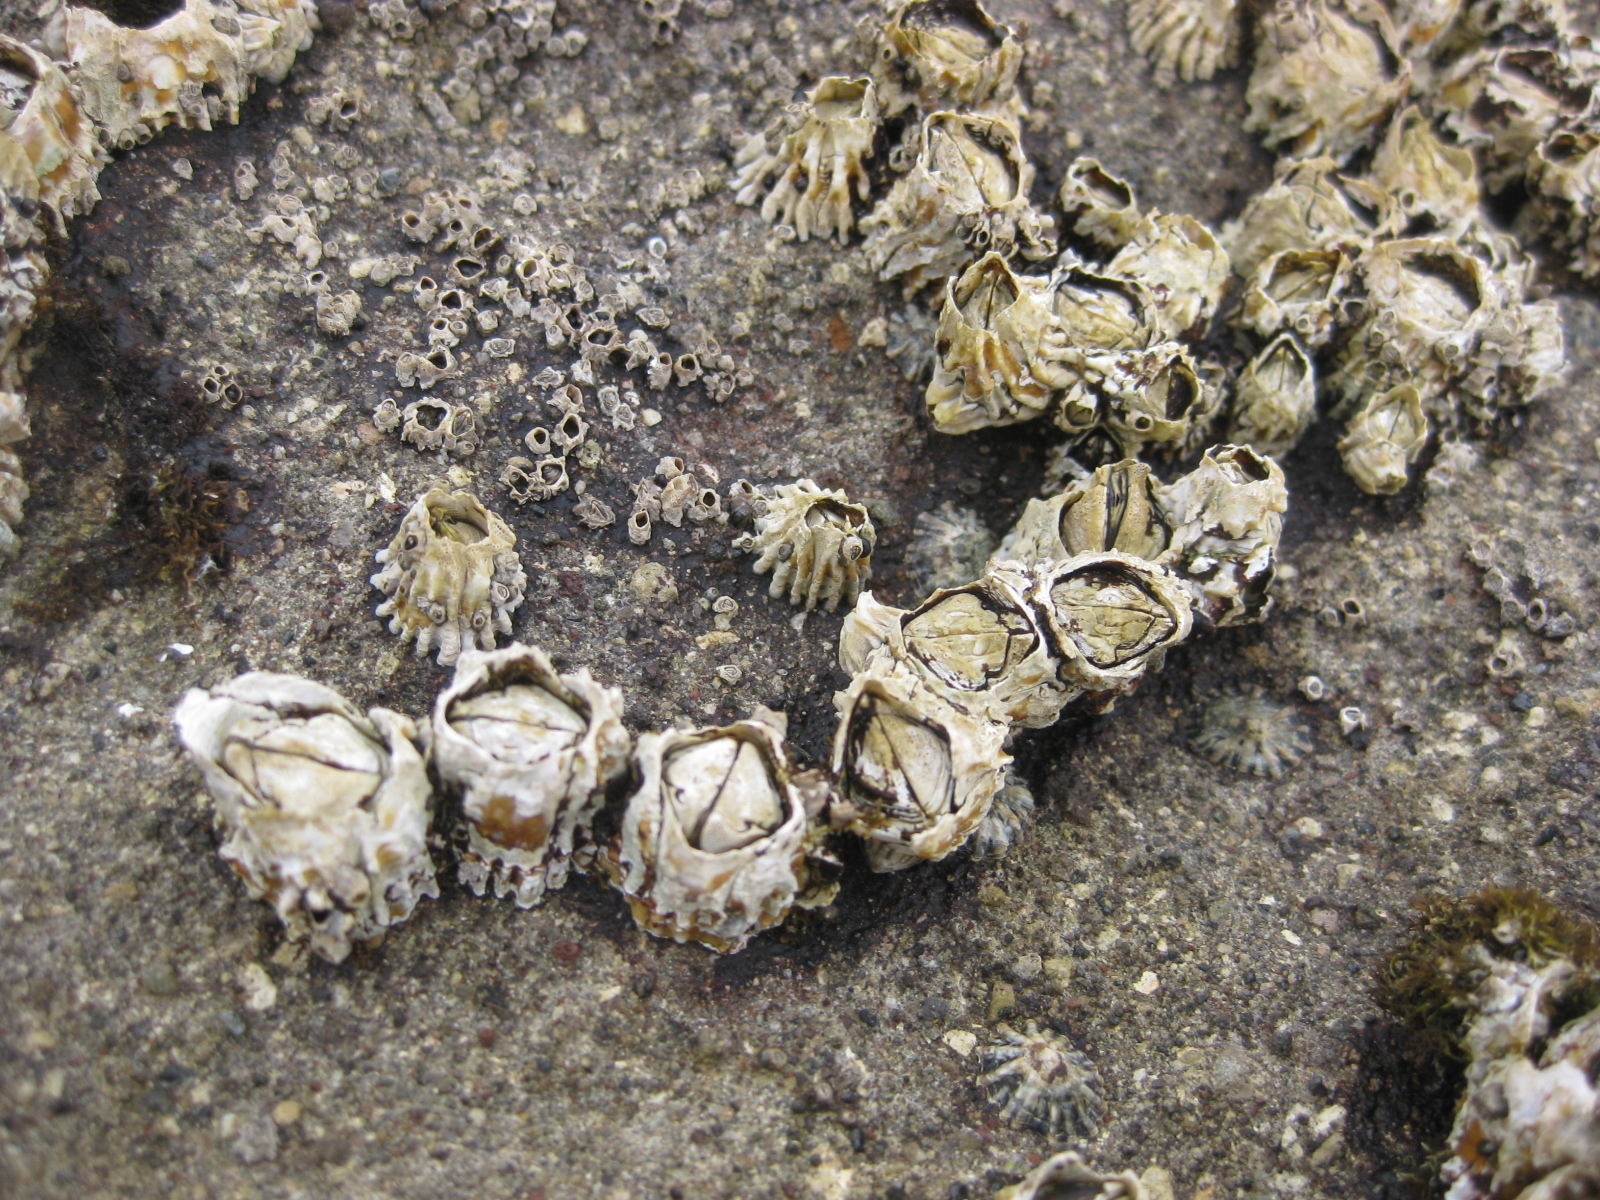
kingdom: Animalia
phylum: Arthropoda
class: Maxillopoda
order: Sessilia
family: Tetraclitidae
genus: Epopella
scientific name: Epopella plicata
